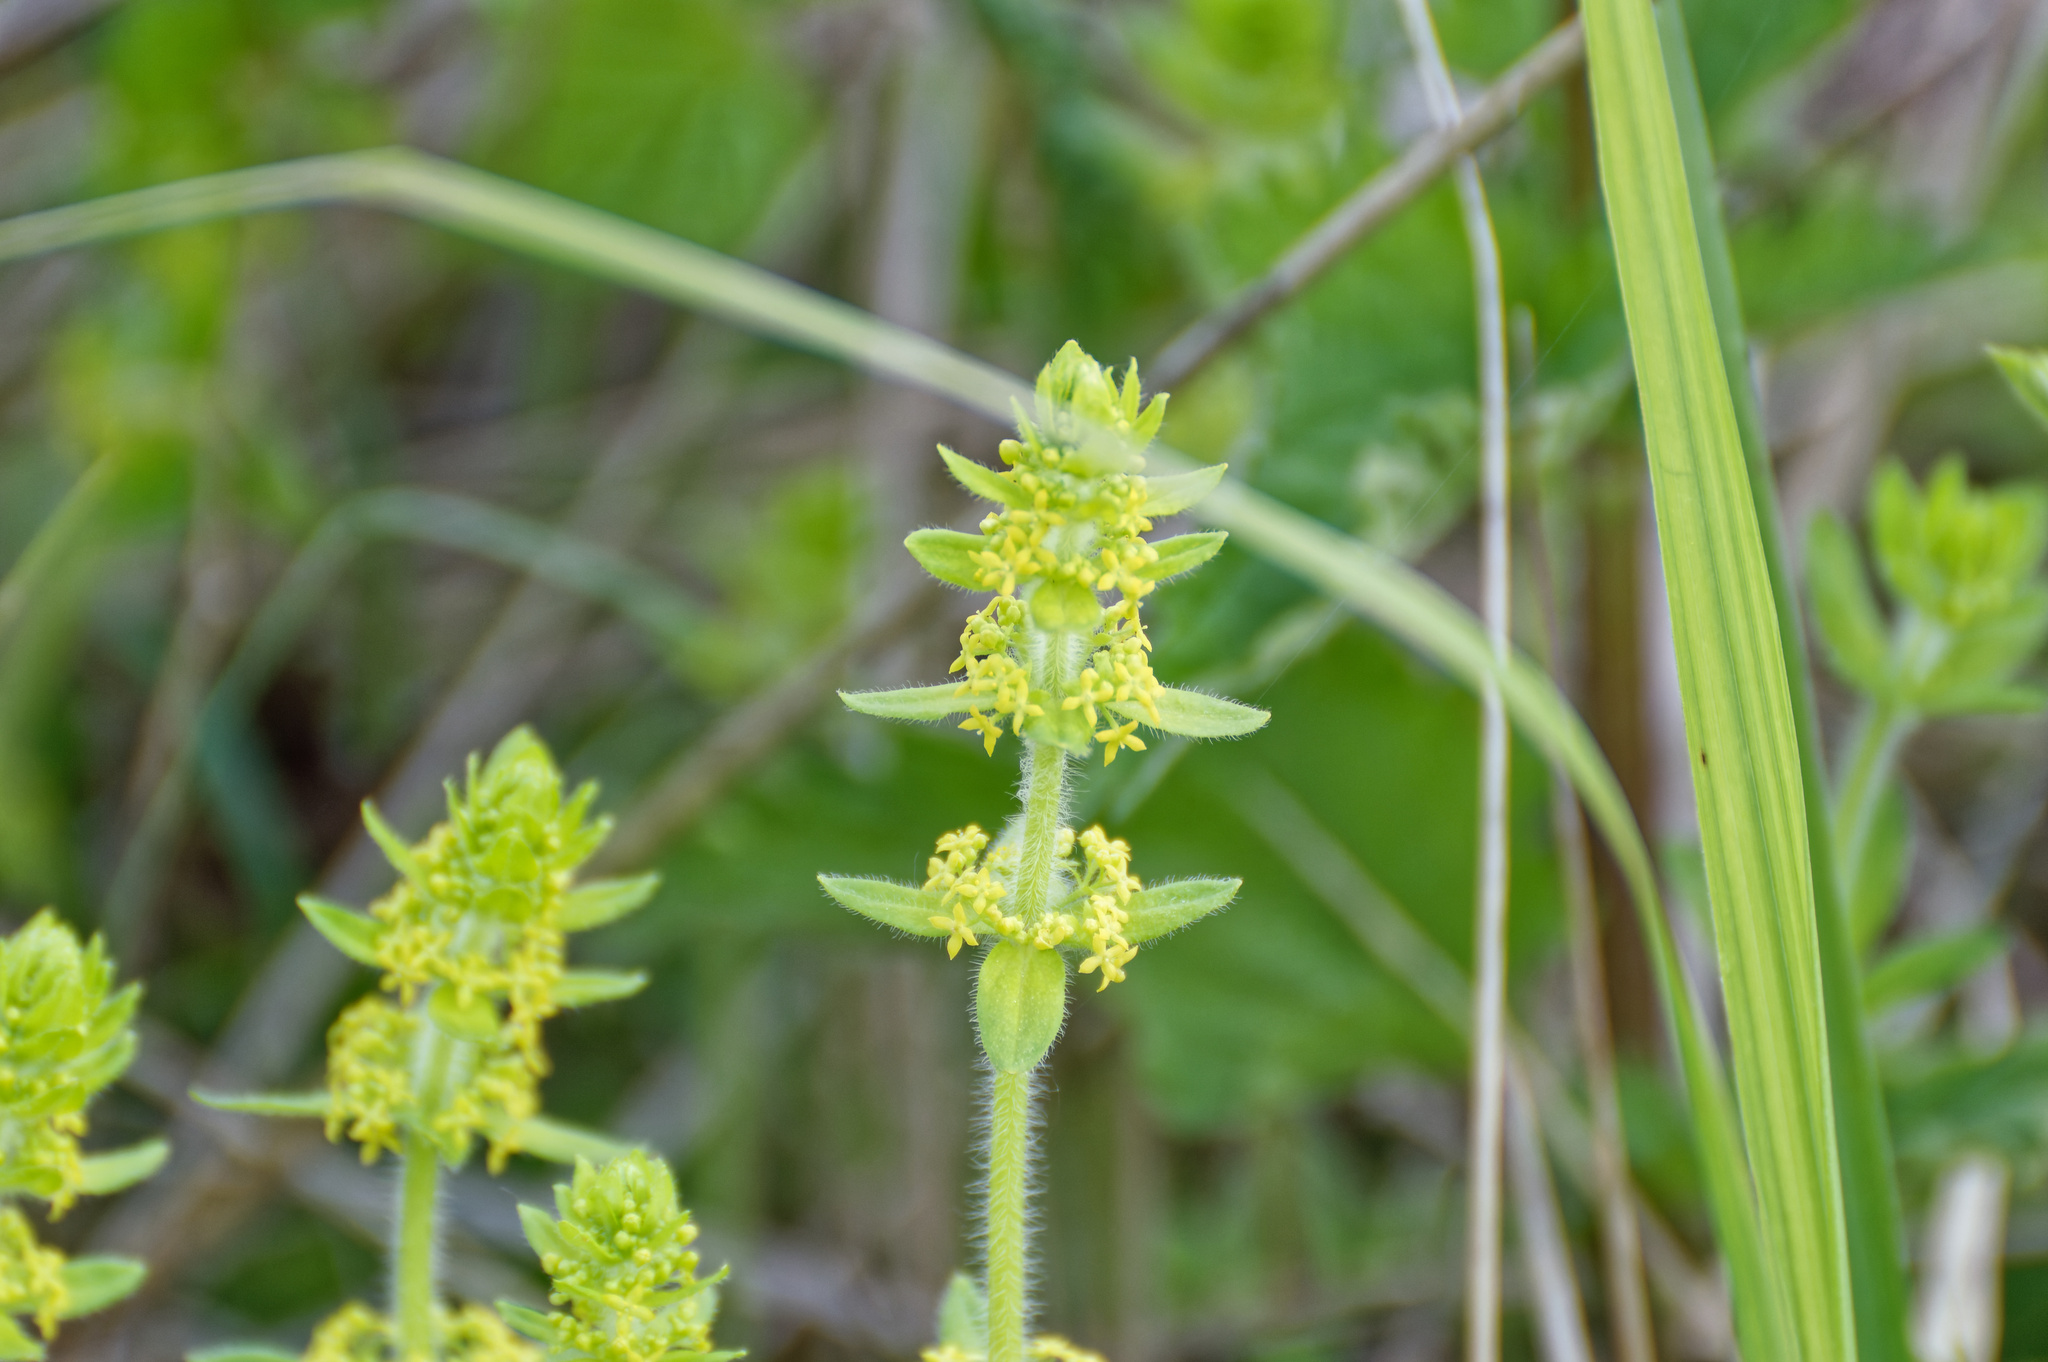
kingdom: Plantae
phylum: Tracheophyta
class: Magnoliopsida
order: Gentianales
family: Rubiaceae
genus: Cruciata
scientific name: Cruciata laevipes
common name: Crosswort
